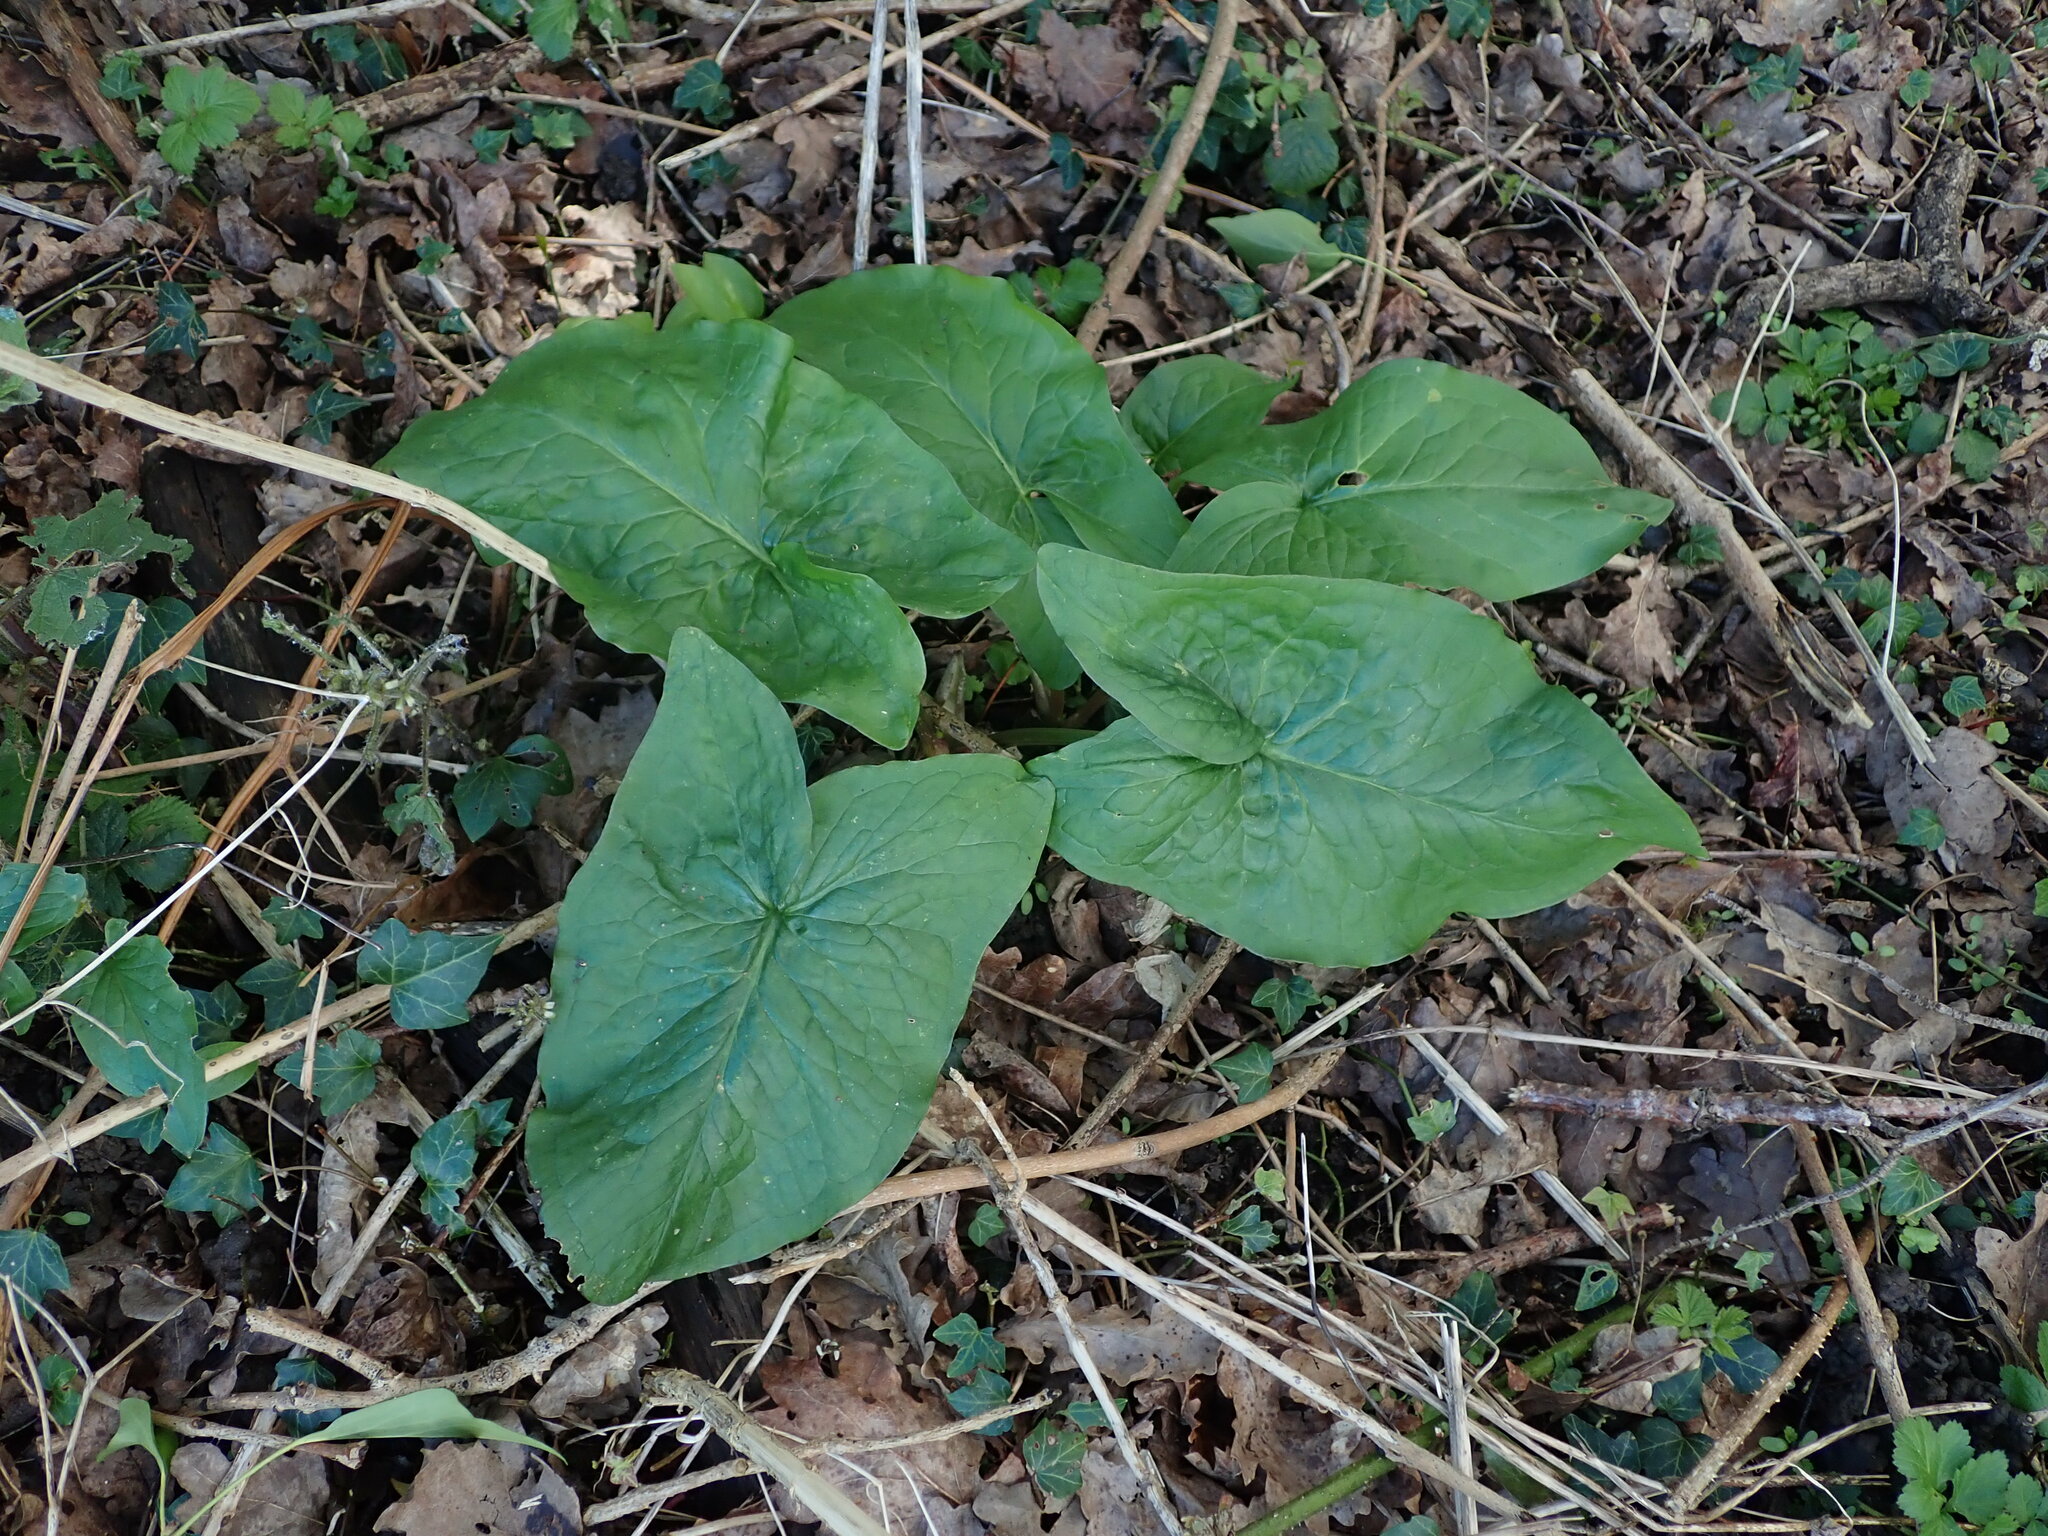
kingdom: Plantae
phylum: Tracheophyta
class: Liliopsida
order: Alismatales
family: Araceae
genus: Arum
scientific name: Arum maculatum
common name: Lords-and-ladies
